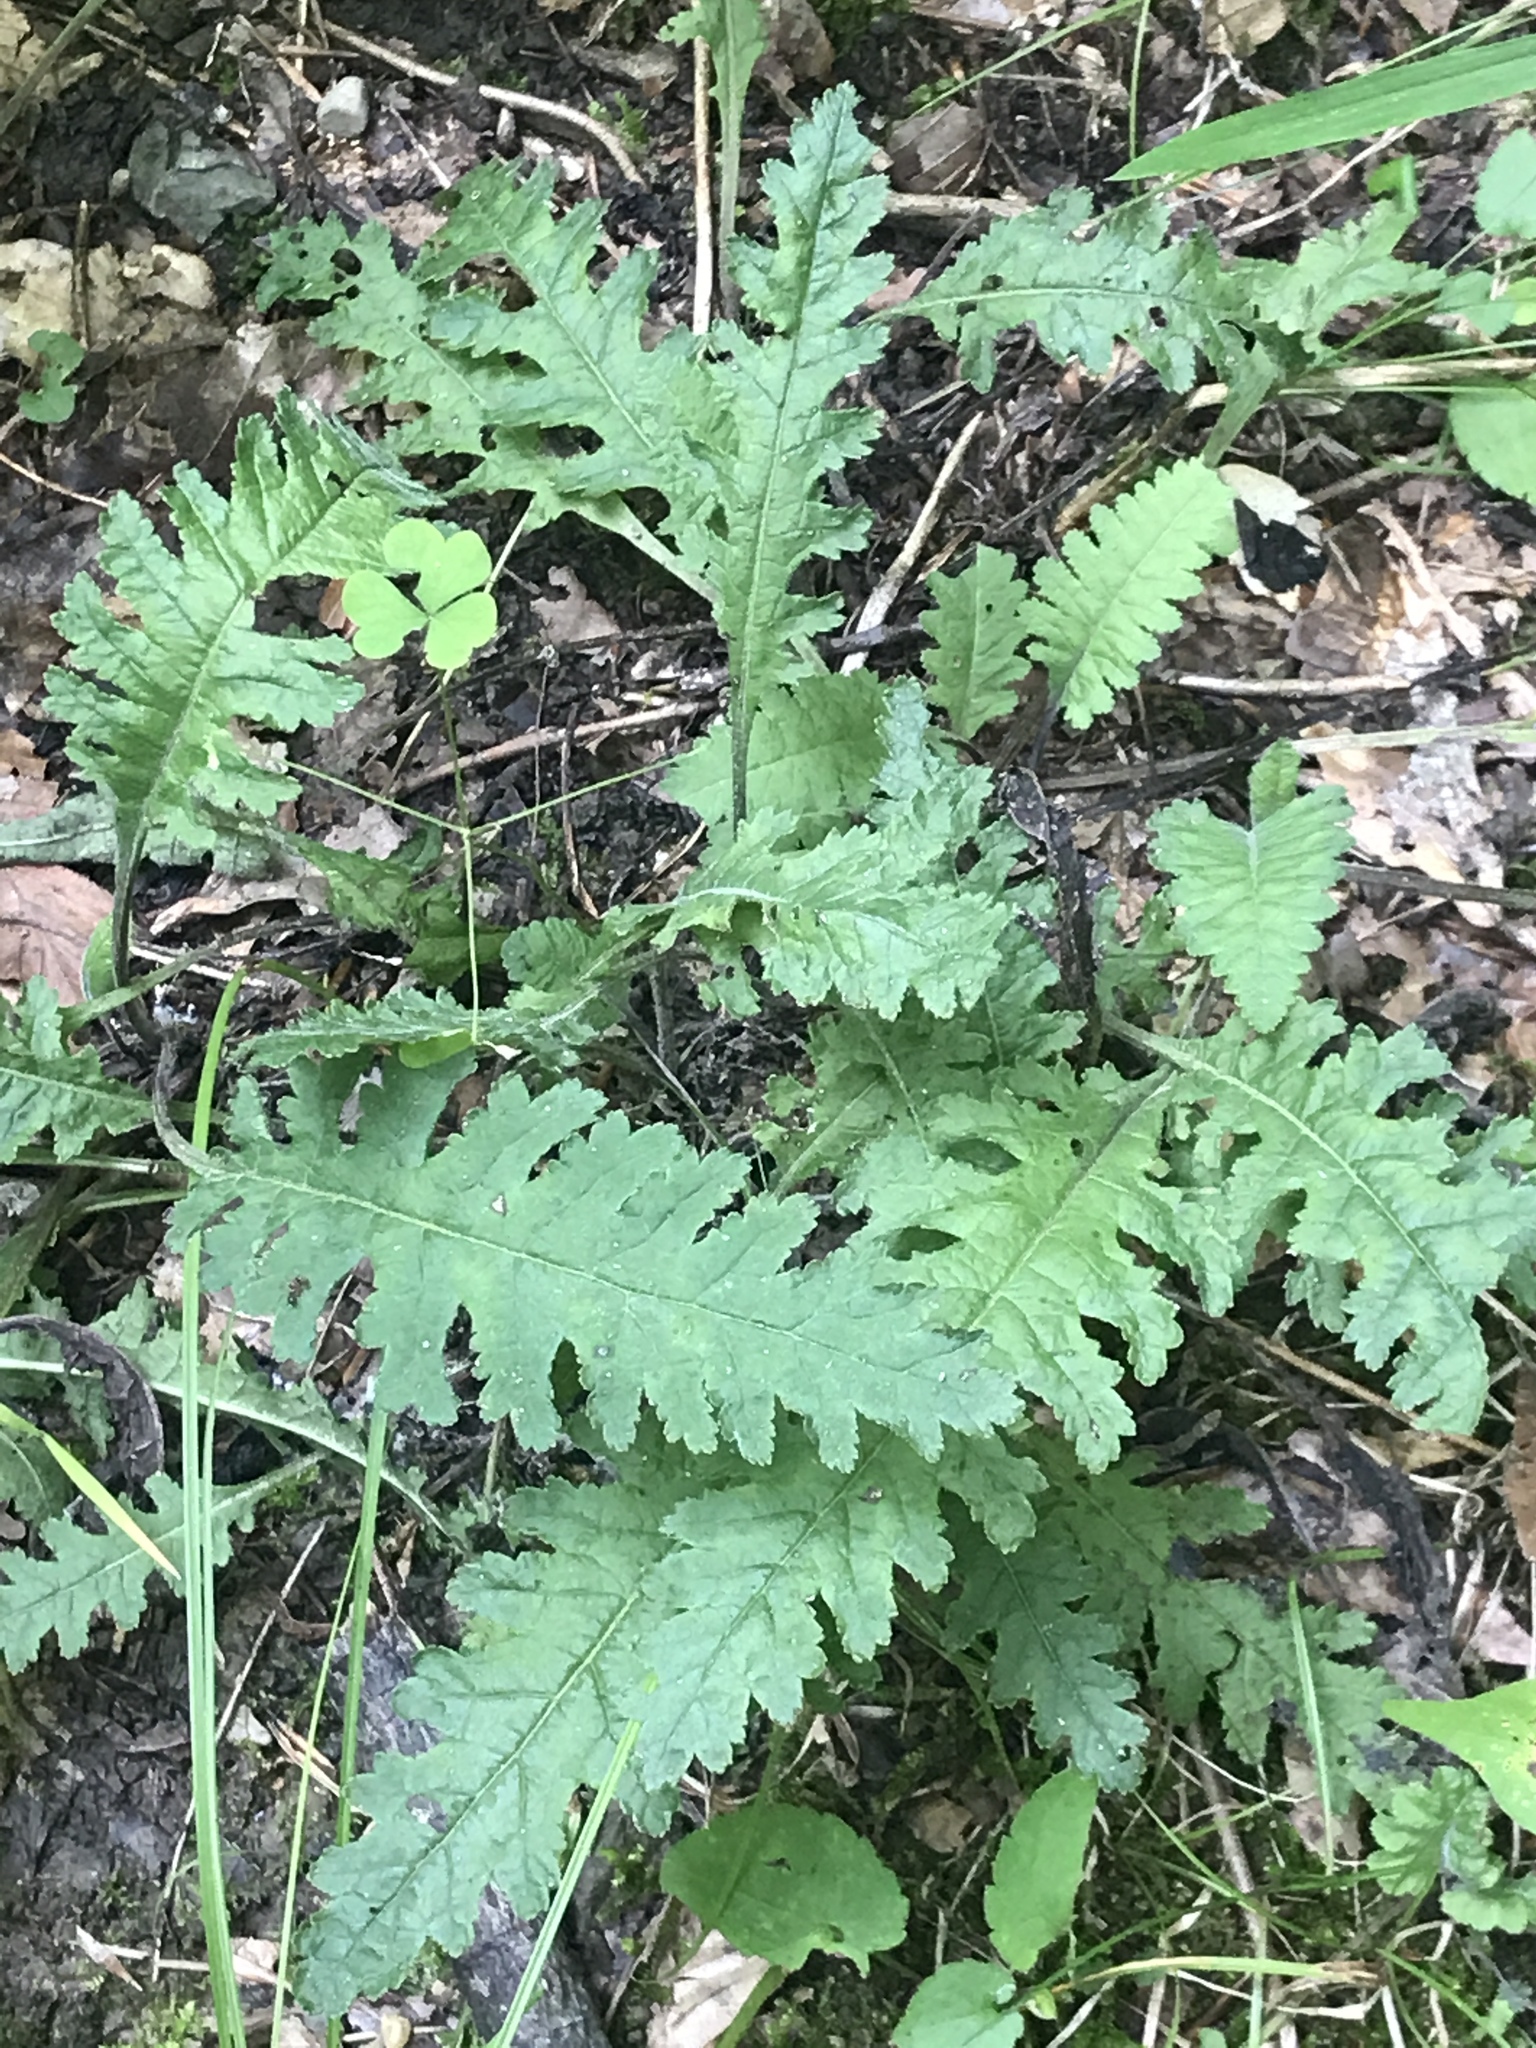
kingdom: Plantae
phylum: Tracheophyta
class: Magnoliopsida
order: Lamiales
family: Orobanchaceae
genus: Pedicularis
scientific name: Pedicularis canadensis
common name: Early lousewort
